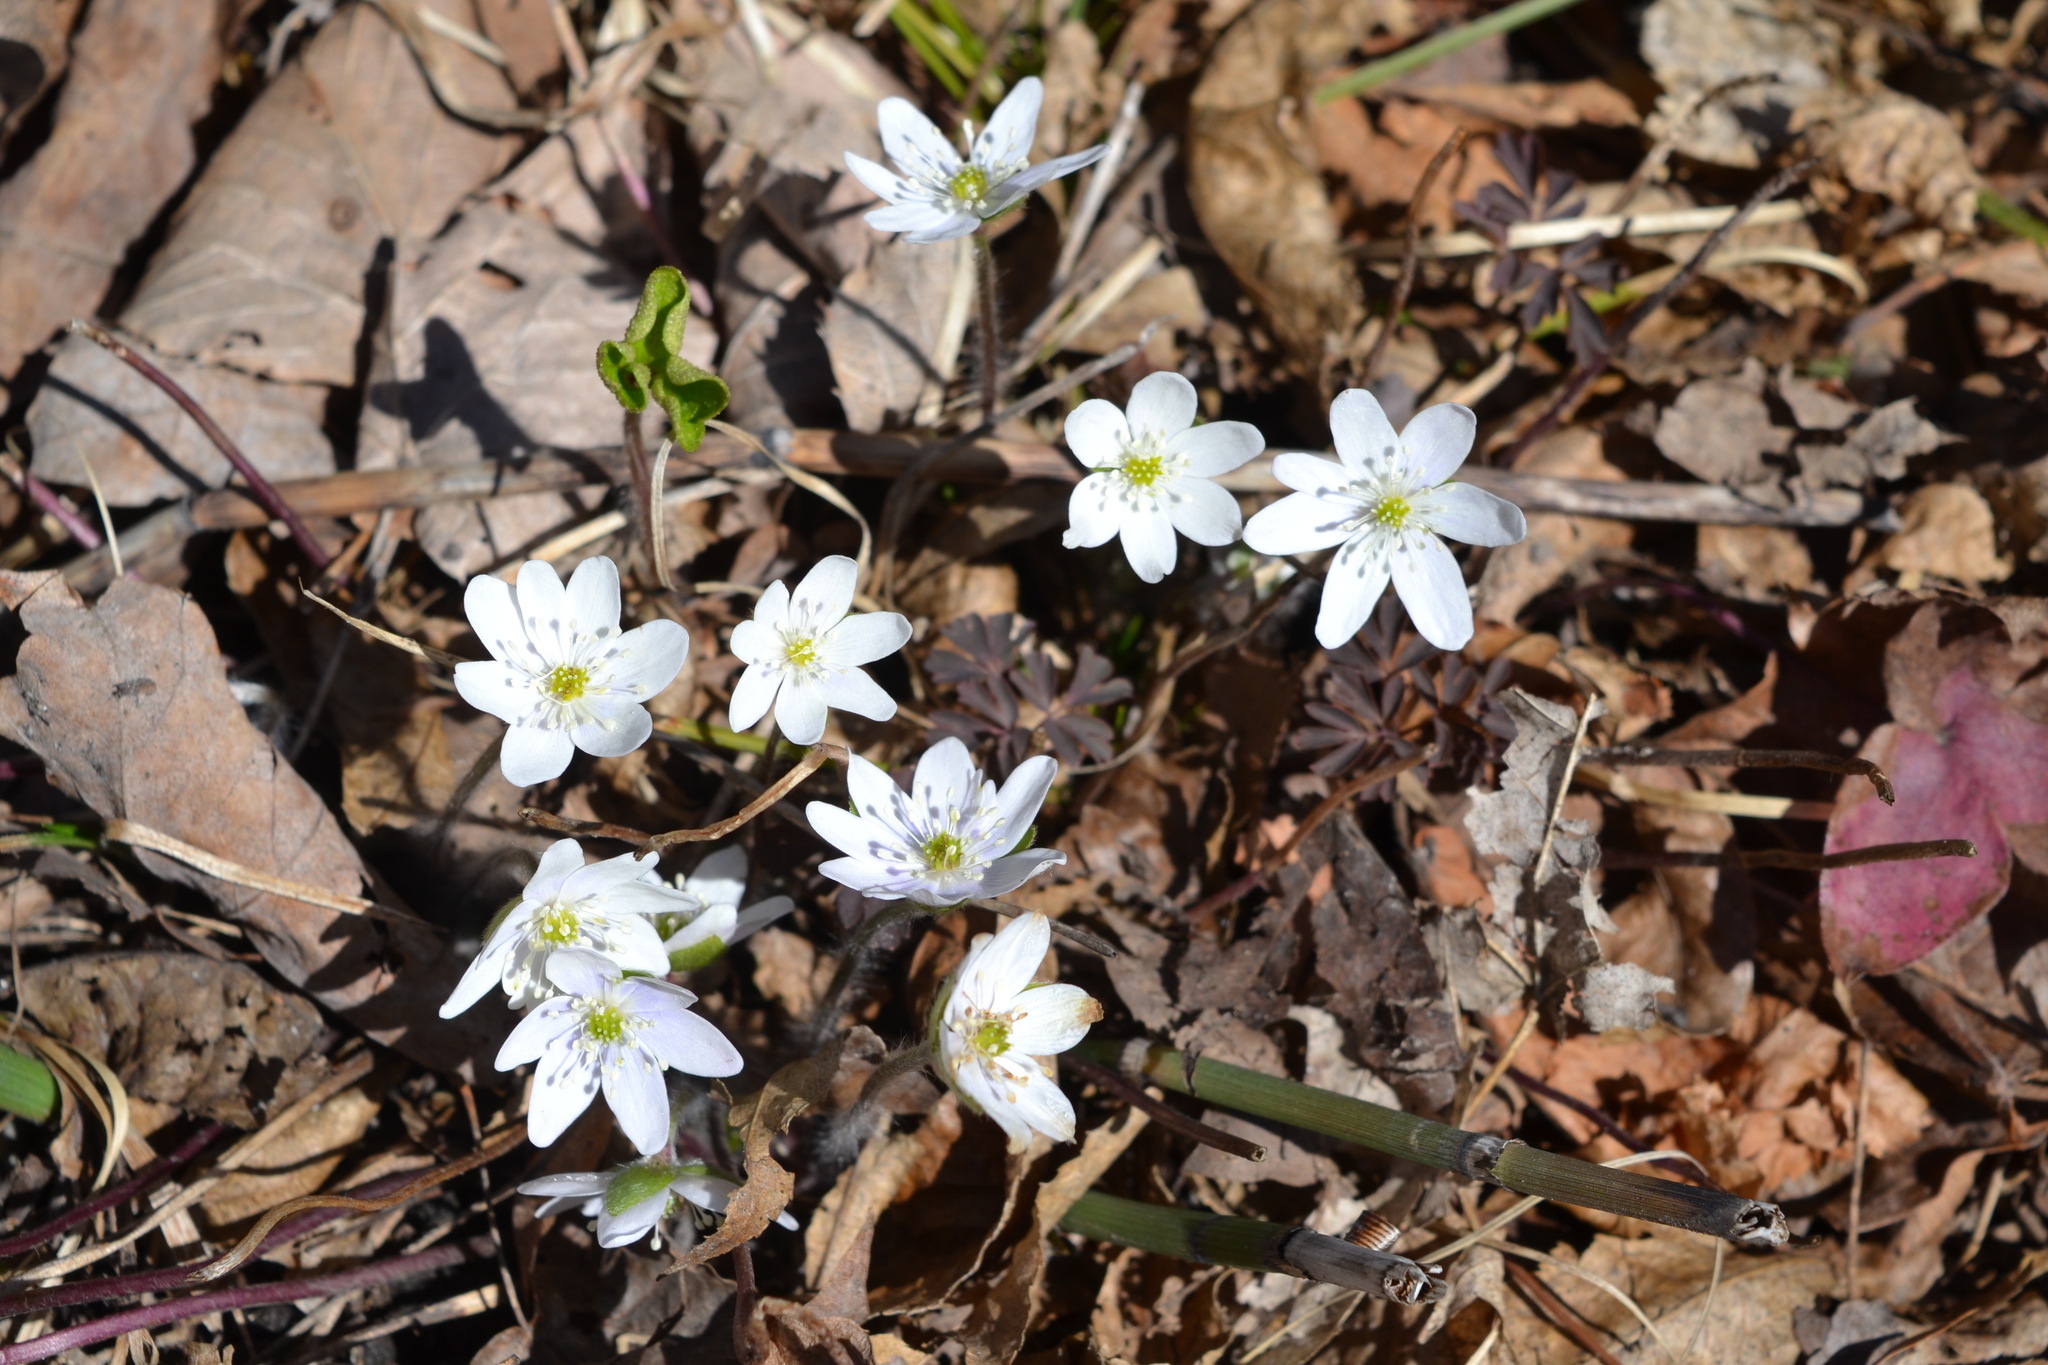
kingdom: Plantae
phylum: Tracheophyta
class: Magnoliopsida
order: Ranunculales
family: Ranunculaceae
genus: Hepatica
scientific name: Hepatica acutiloba
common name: Sharp-lobed hepatica
